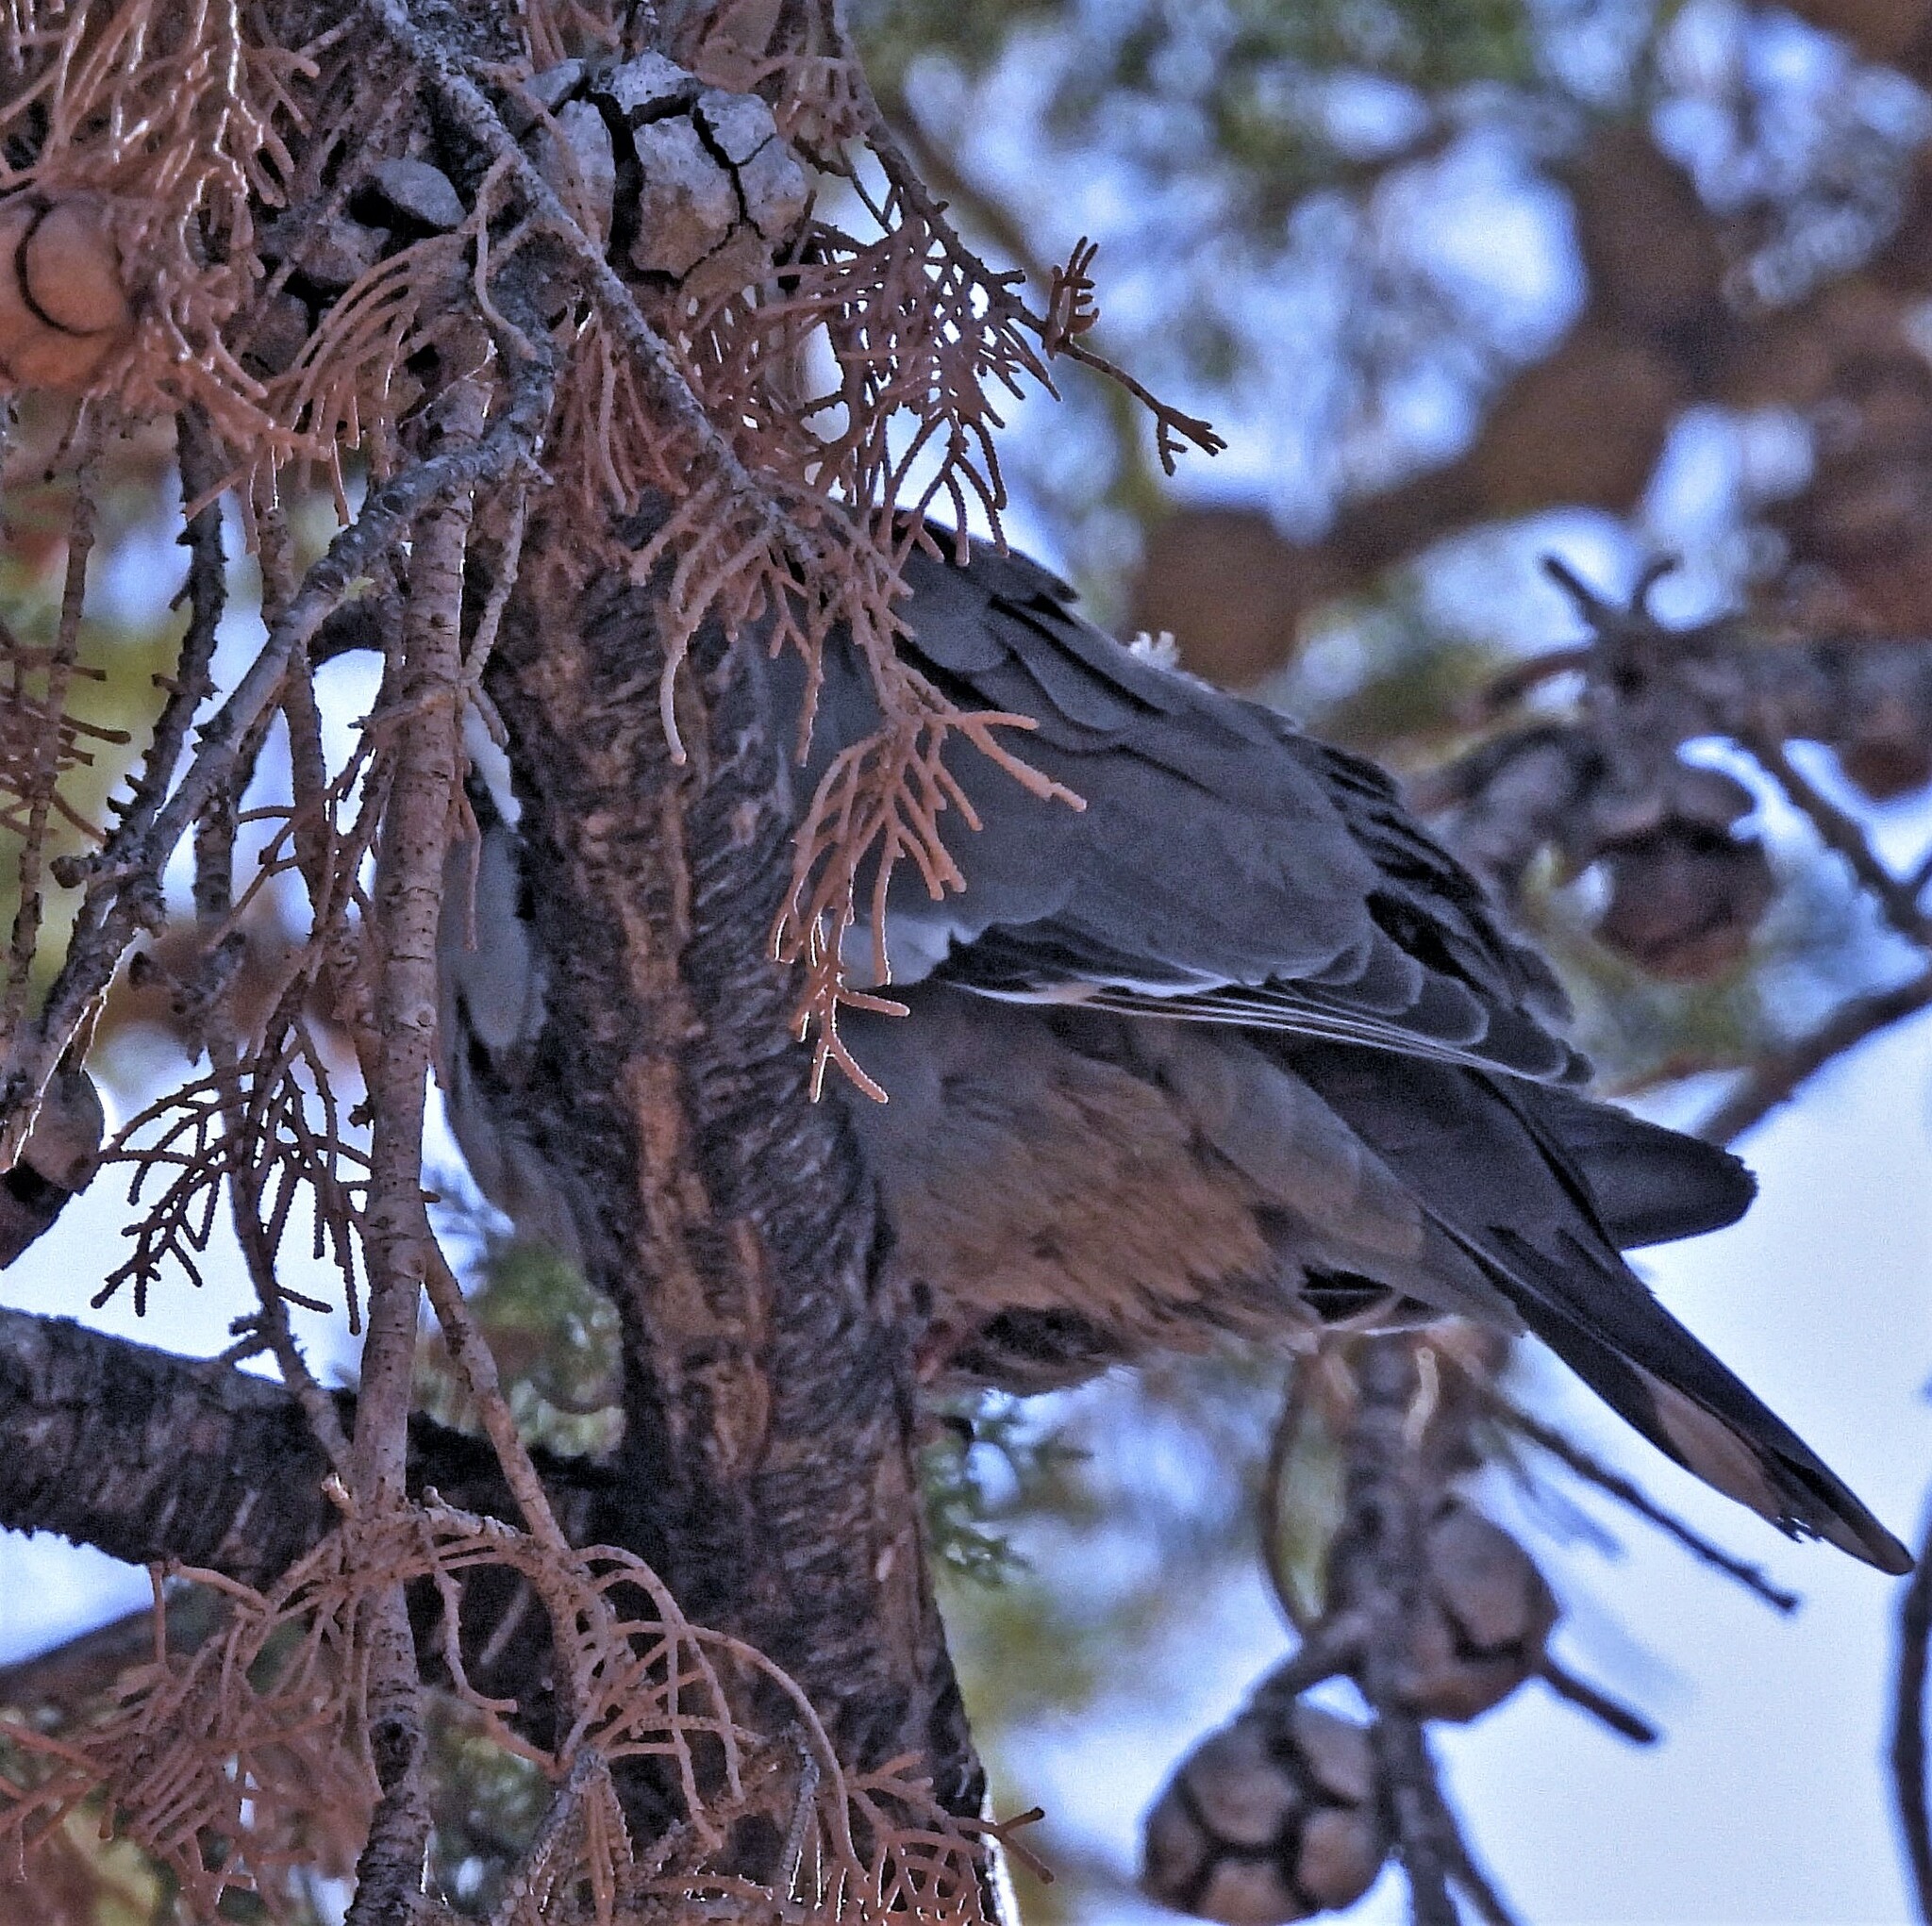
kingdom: Animalia
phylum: Chordata
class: Aves
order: Columbiformes
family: Columbidae
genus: Zenaida
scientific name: Zenaida meloda
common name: West peruvian dove
